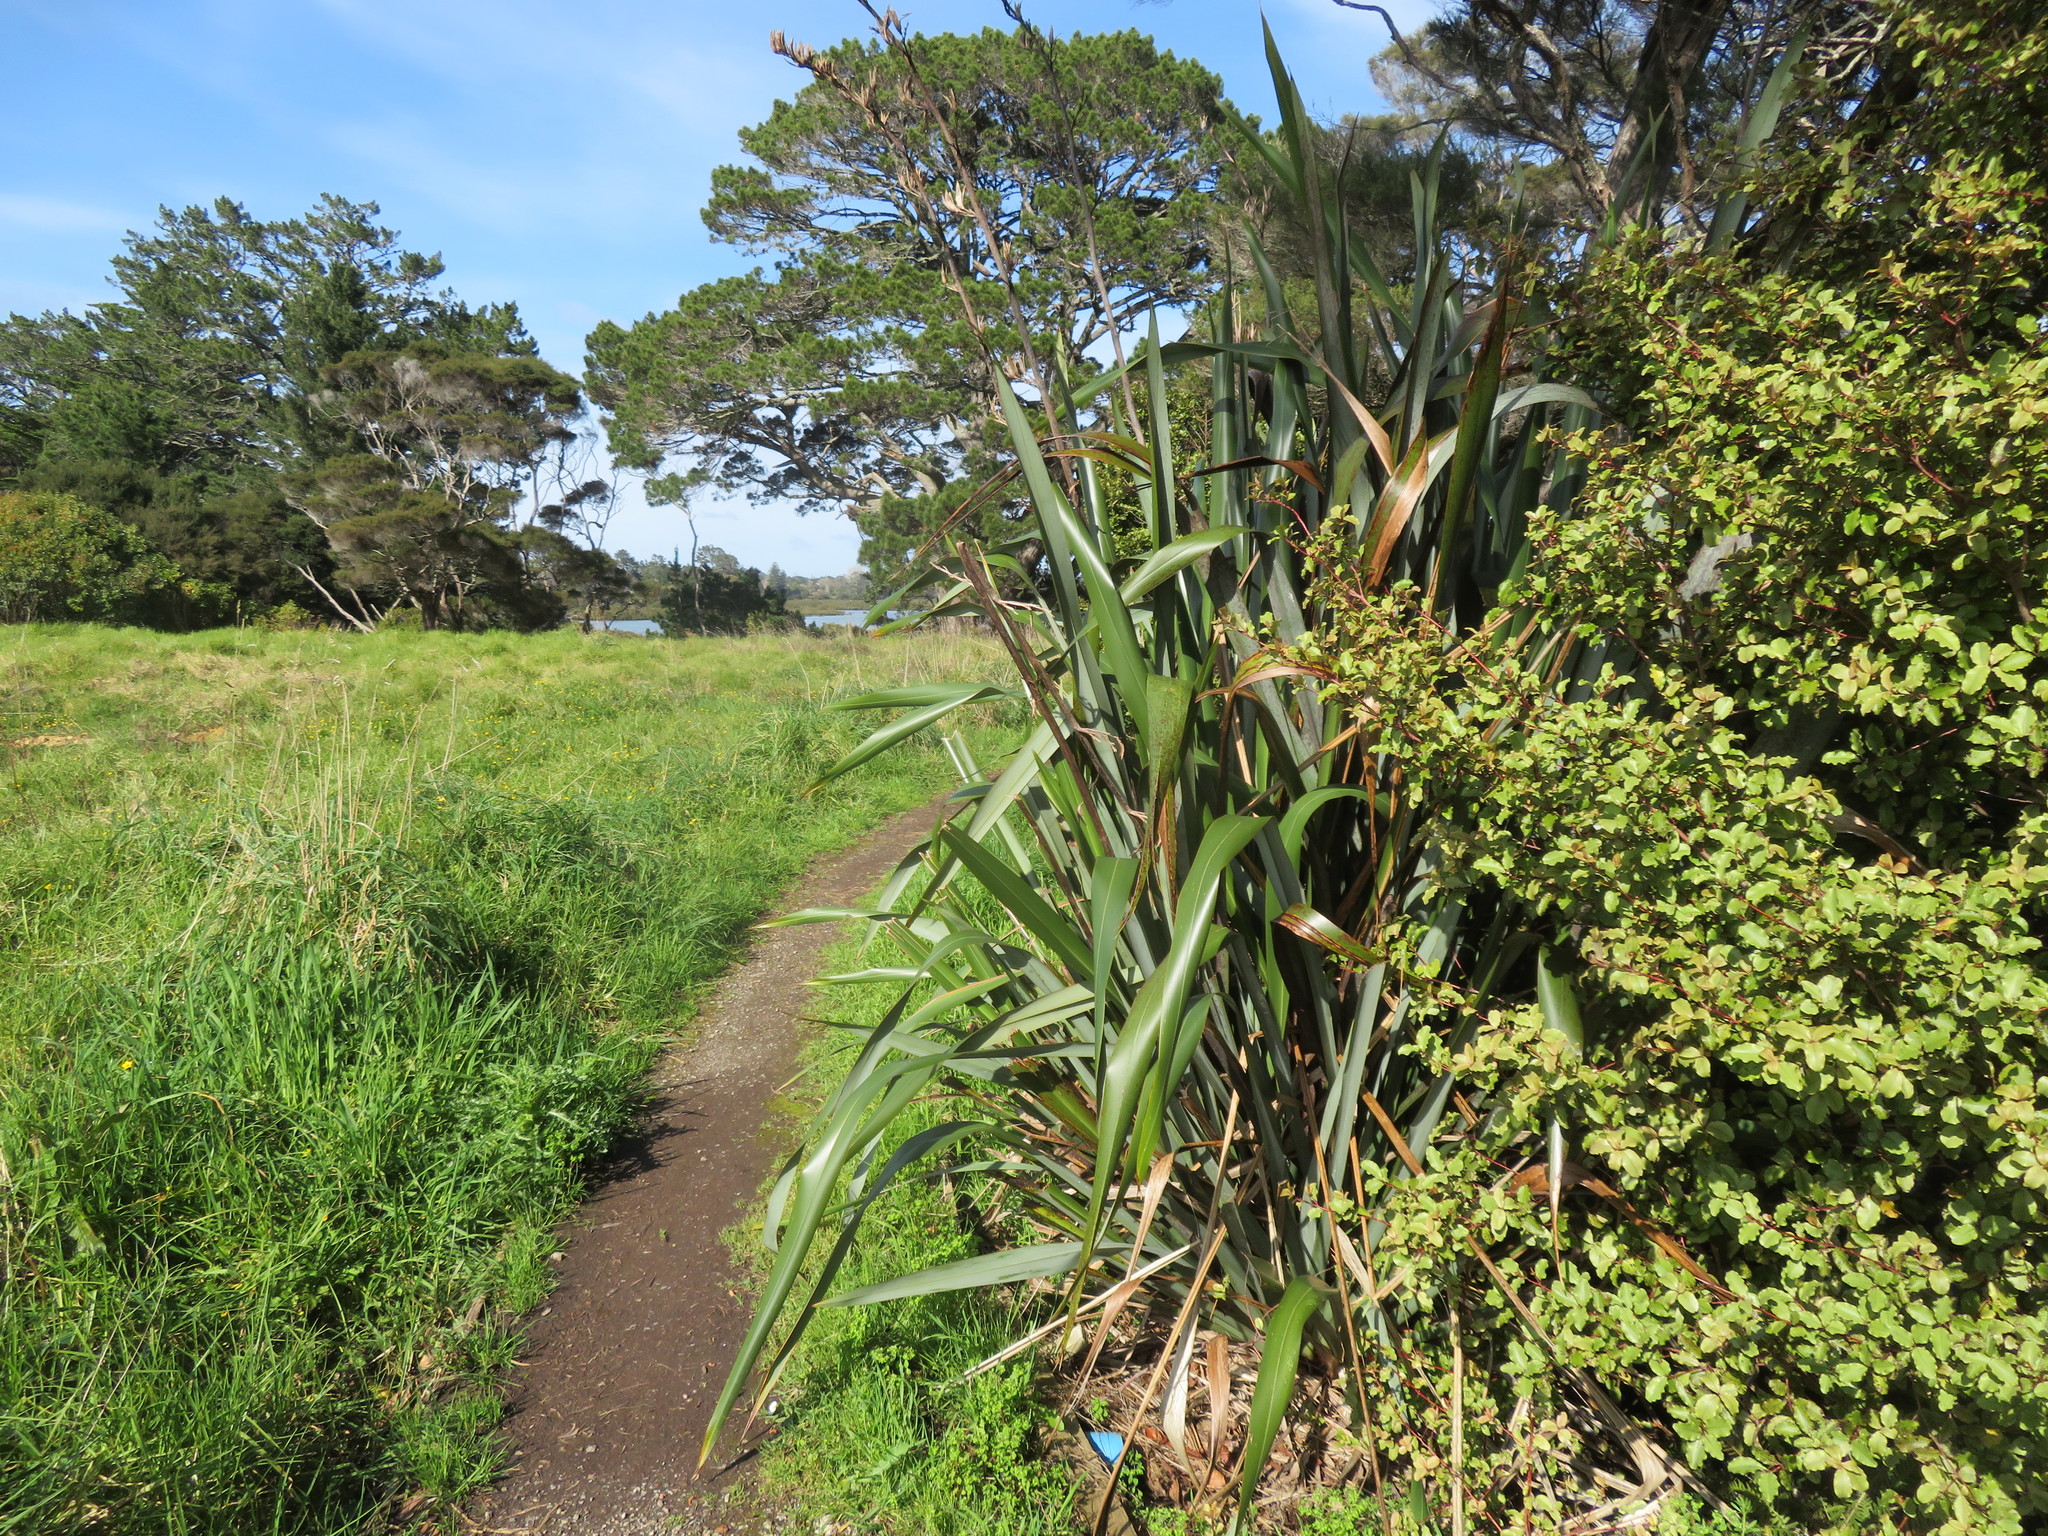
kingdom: Plantae
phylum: Tracheophyta
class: Magnoliopsida
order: Ericales
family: Primulaceae
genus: Myrsine
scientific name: Myrsine australis
